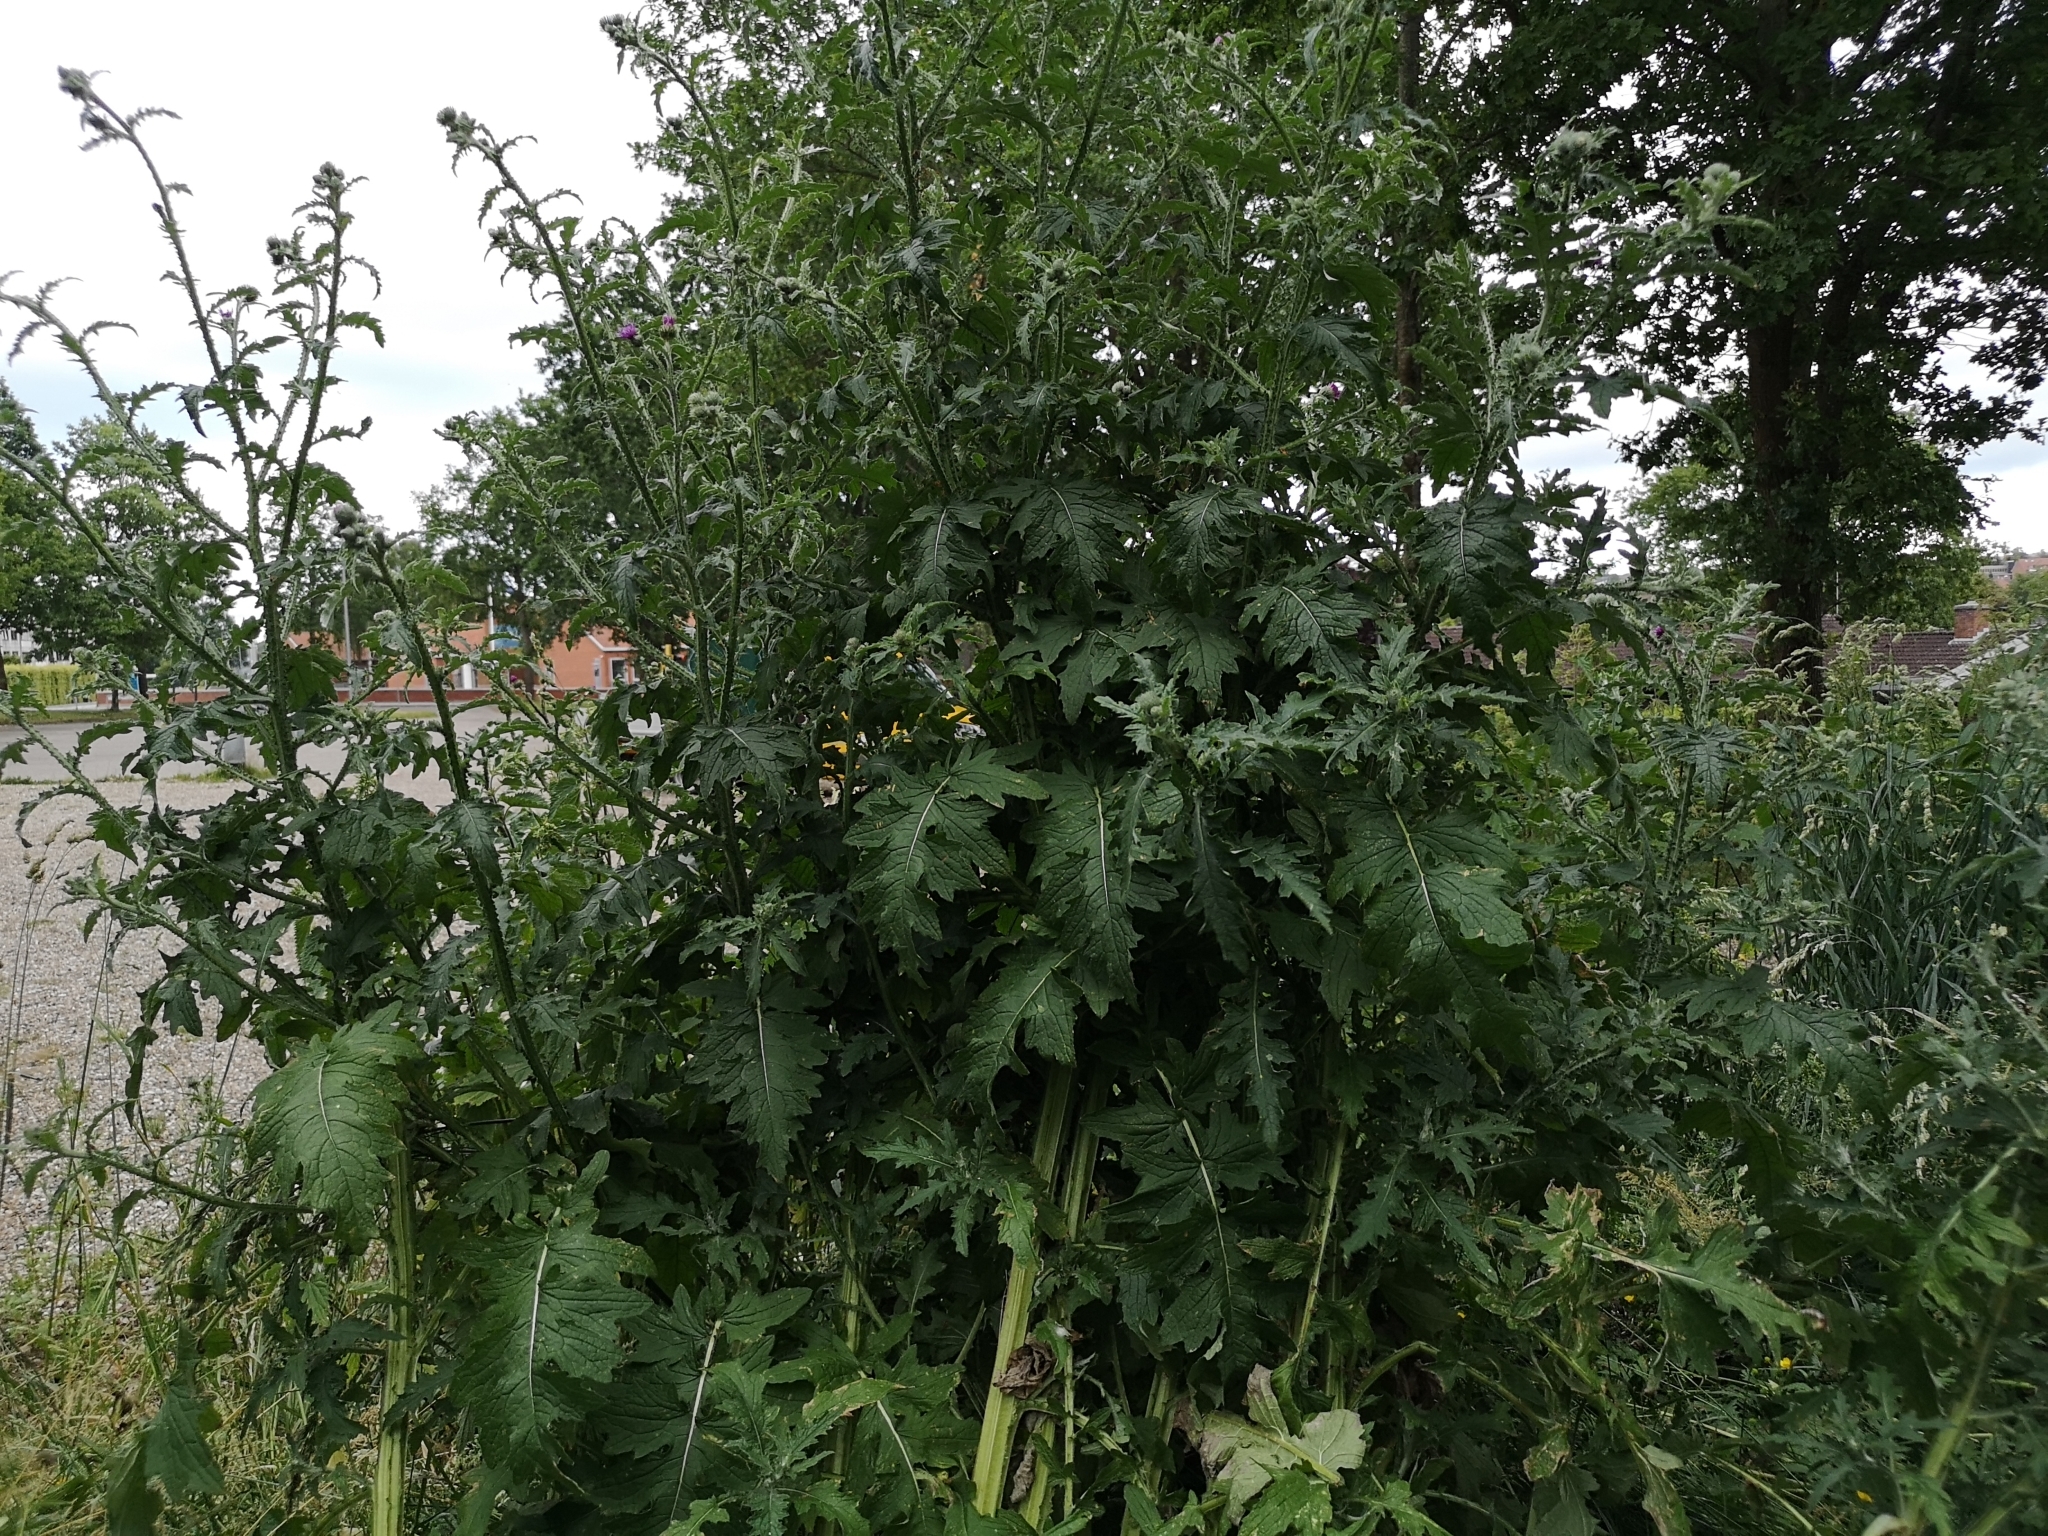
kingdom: Plantae
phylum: Tracheophyta
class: Magnoliopsida
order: Asterales
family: Asteraceae
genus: Carduus
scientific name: Carduus crispus
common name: Welted thistle
